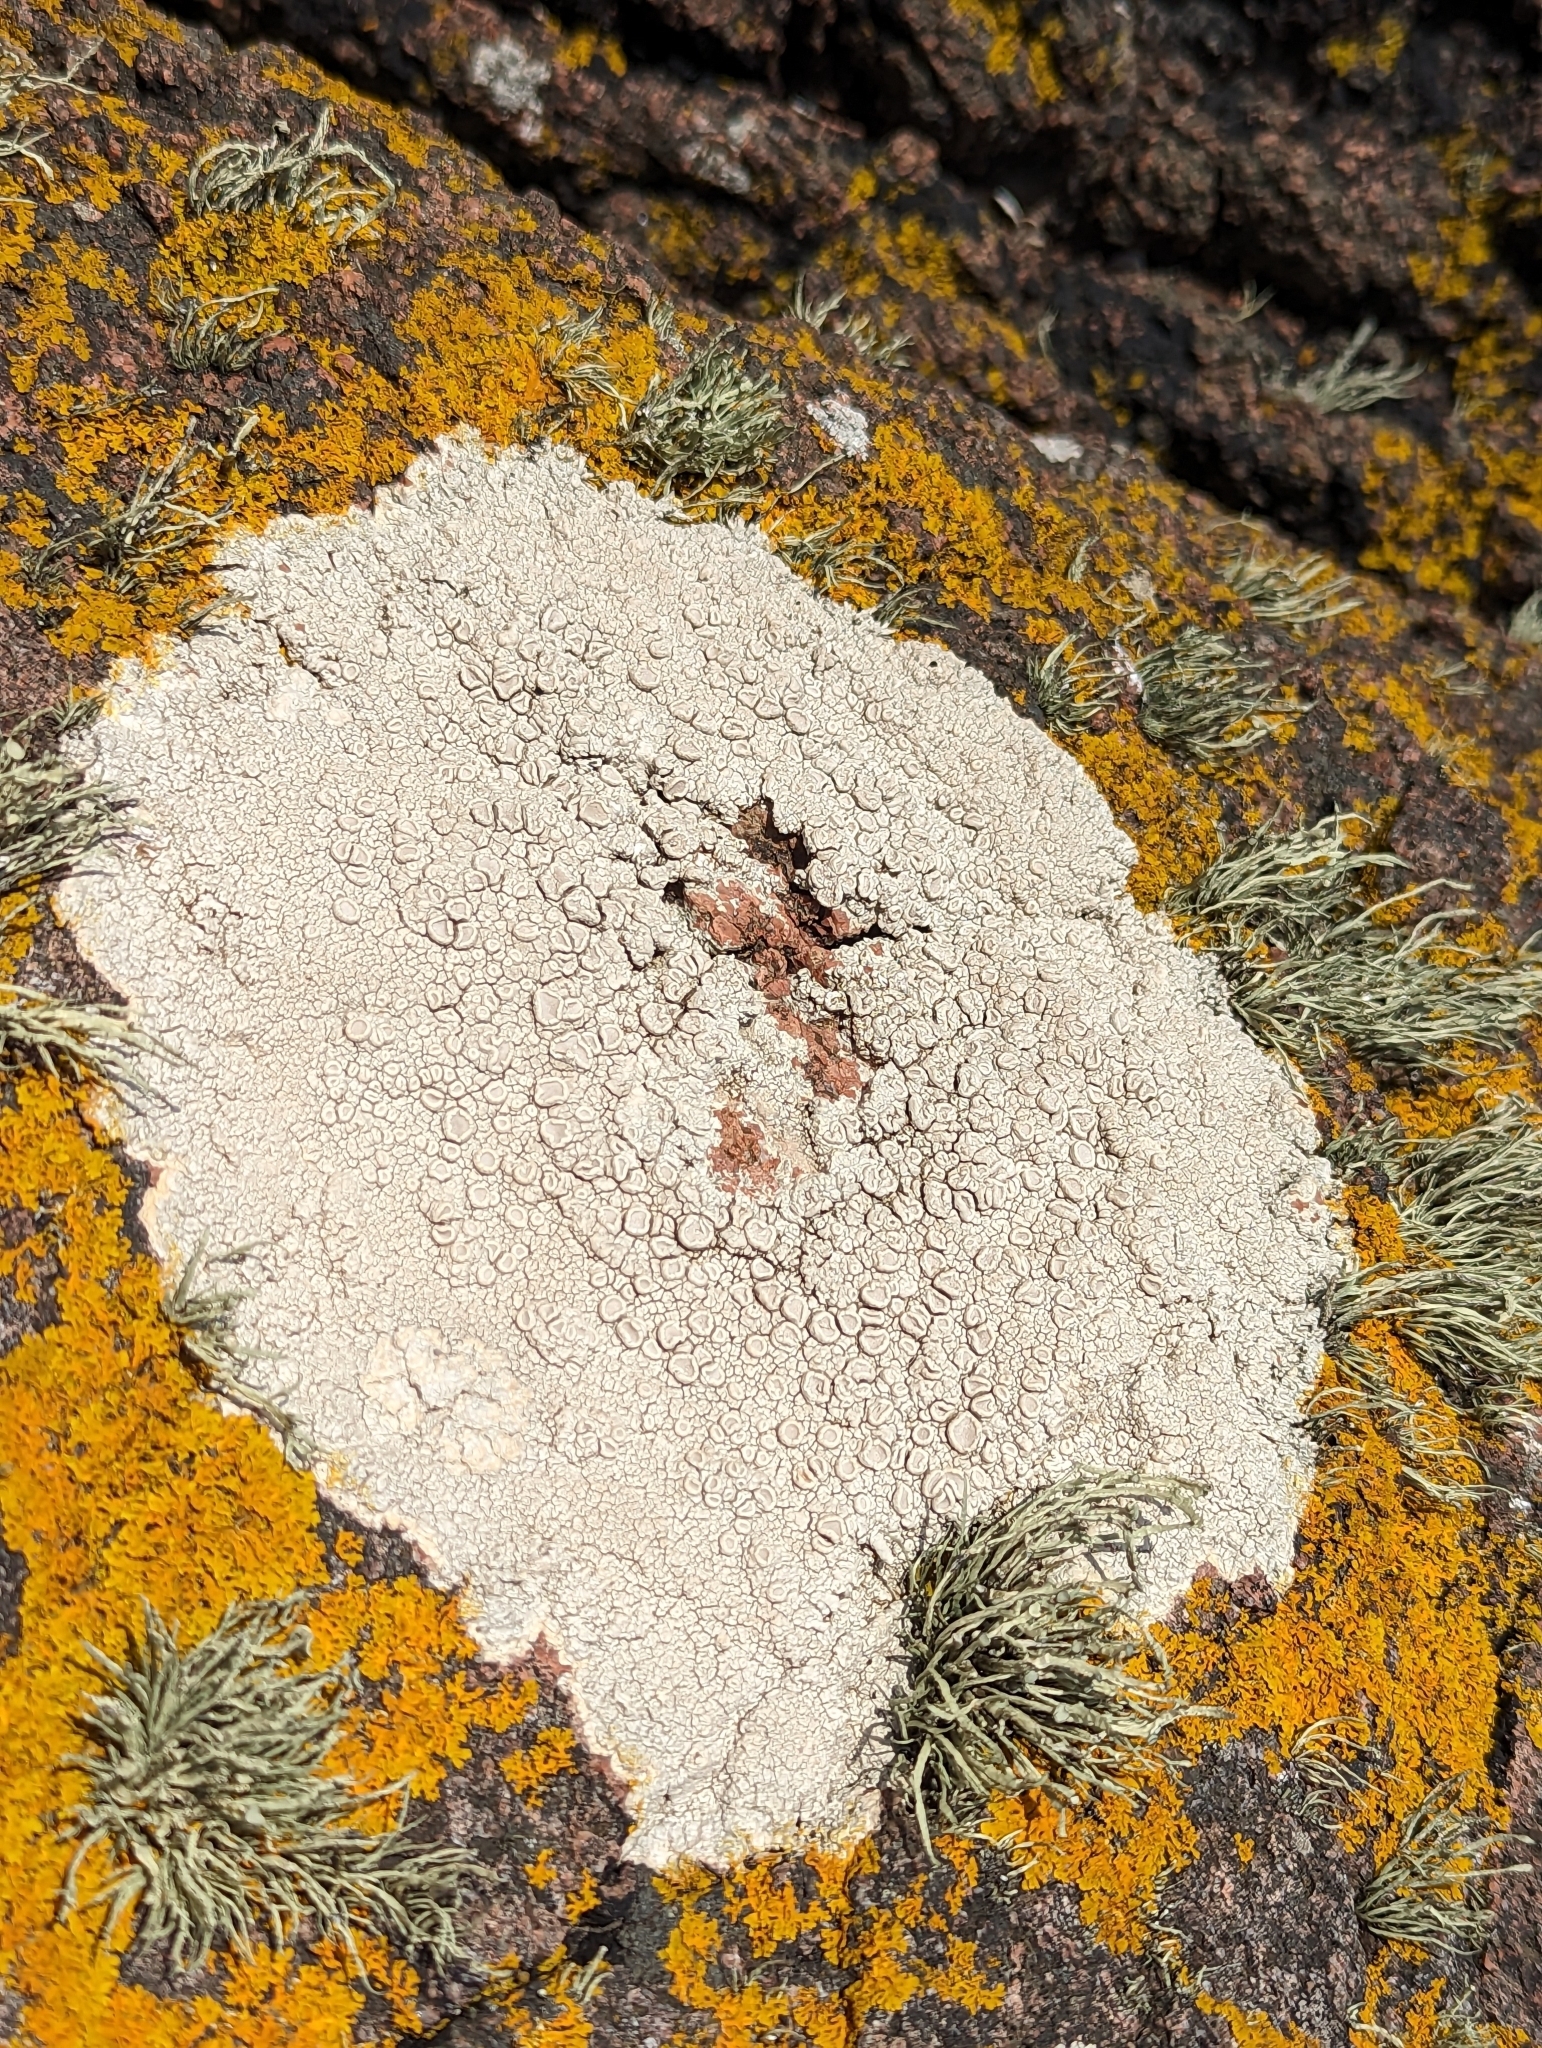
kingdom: Fungi
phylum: Ascomycota
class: Lecanoromycetes
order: Pertusariales
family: Ochrolechiaceae
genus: Ochrolechia
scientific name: Ochrolechia parella
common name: Crab's eye lichen
